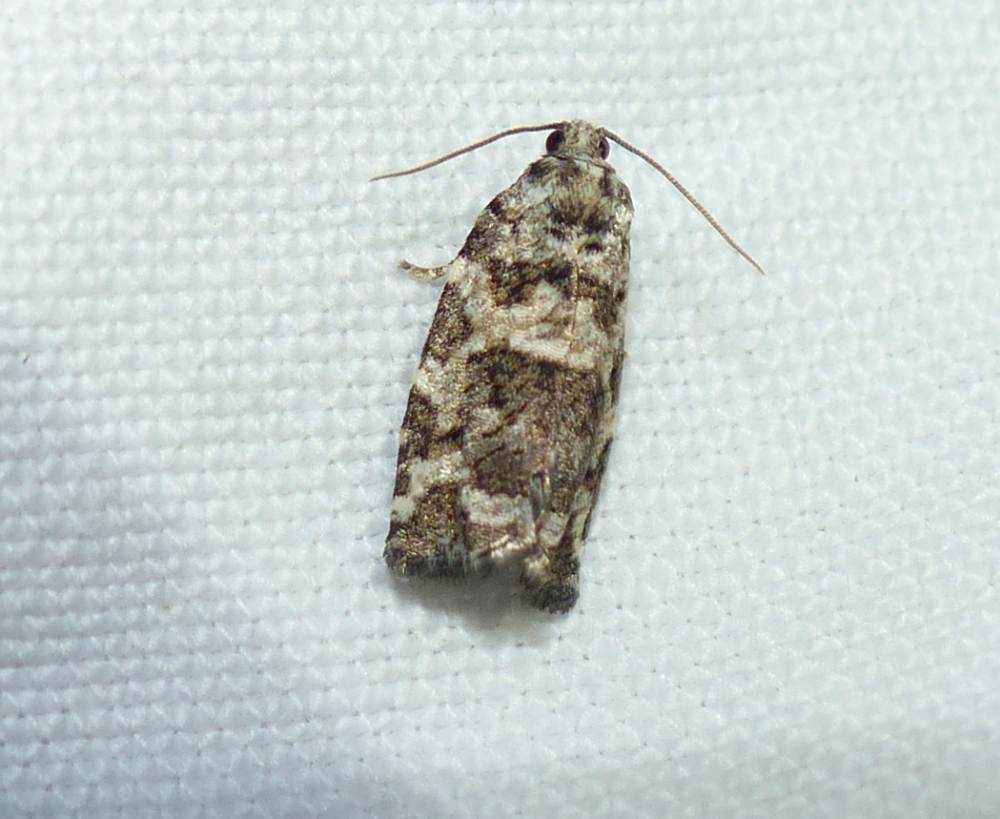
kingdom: Animalia
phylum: Arthropoda
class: Insecta
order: Lepidoptera
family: Tortricidae
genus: Archips
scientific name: Archips packardiana
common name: Spring spruce needle moth
